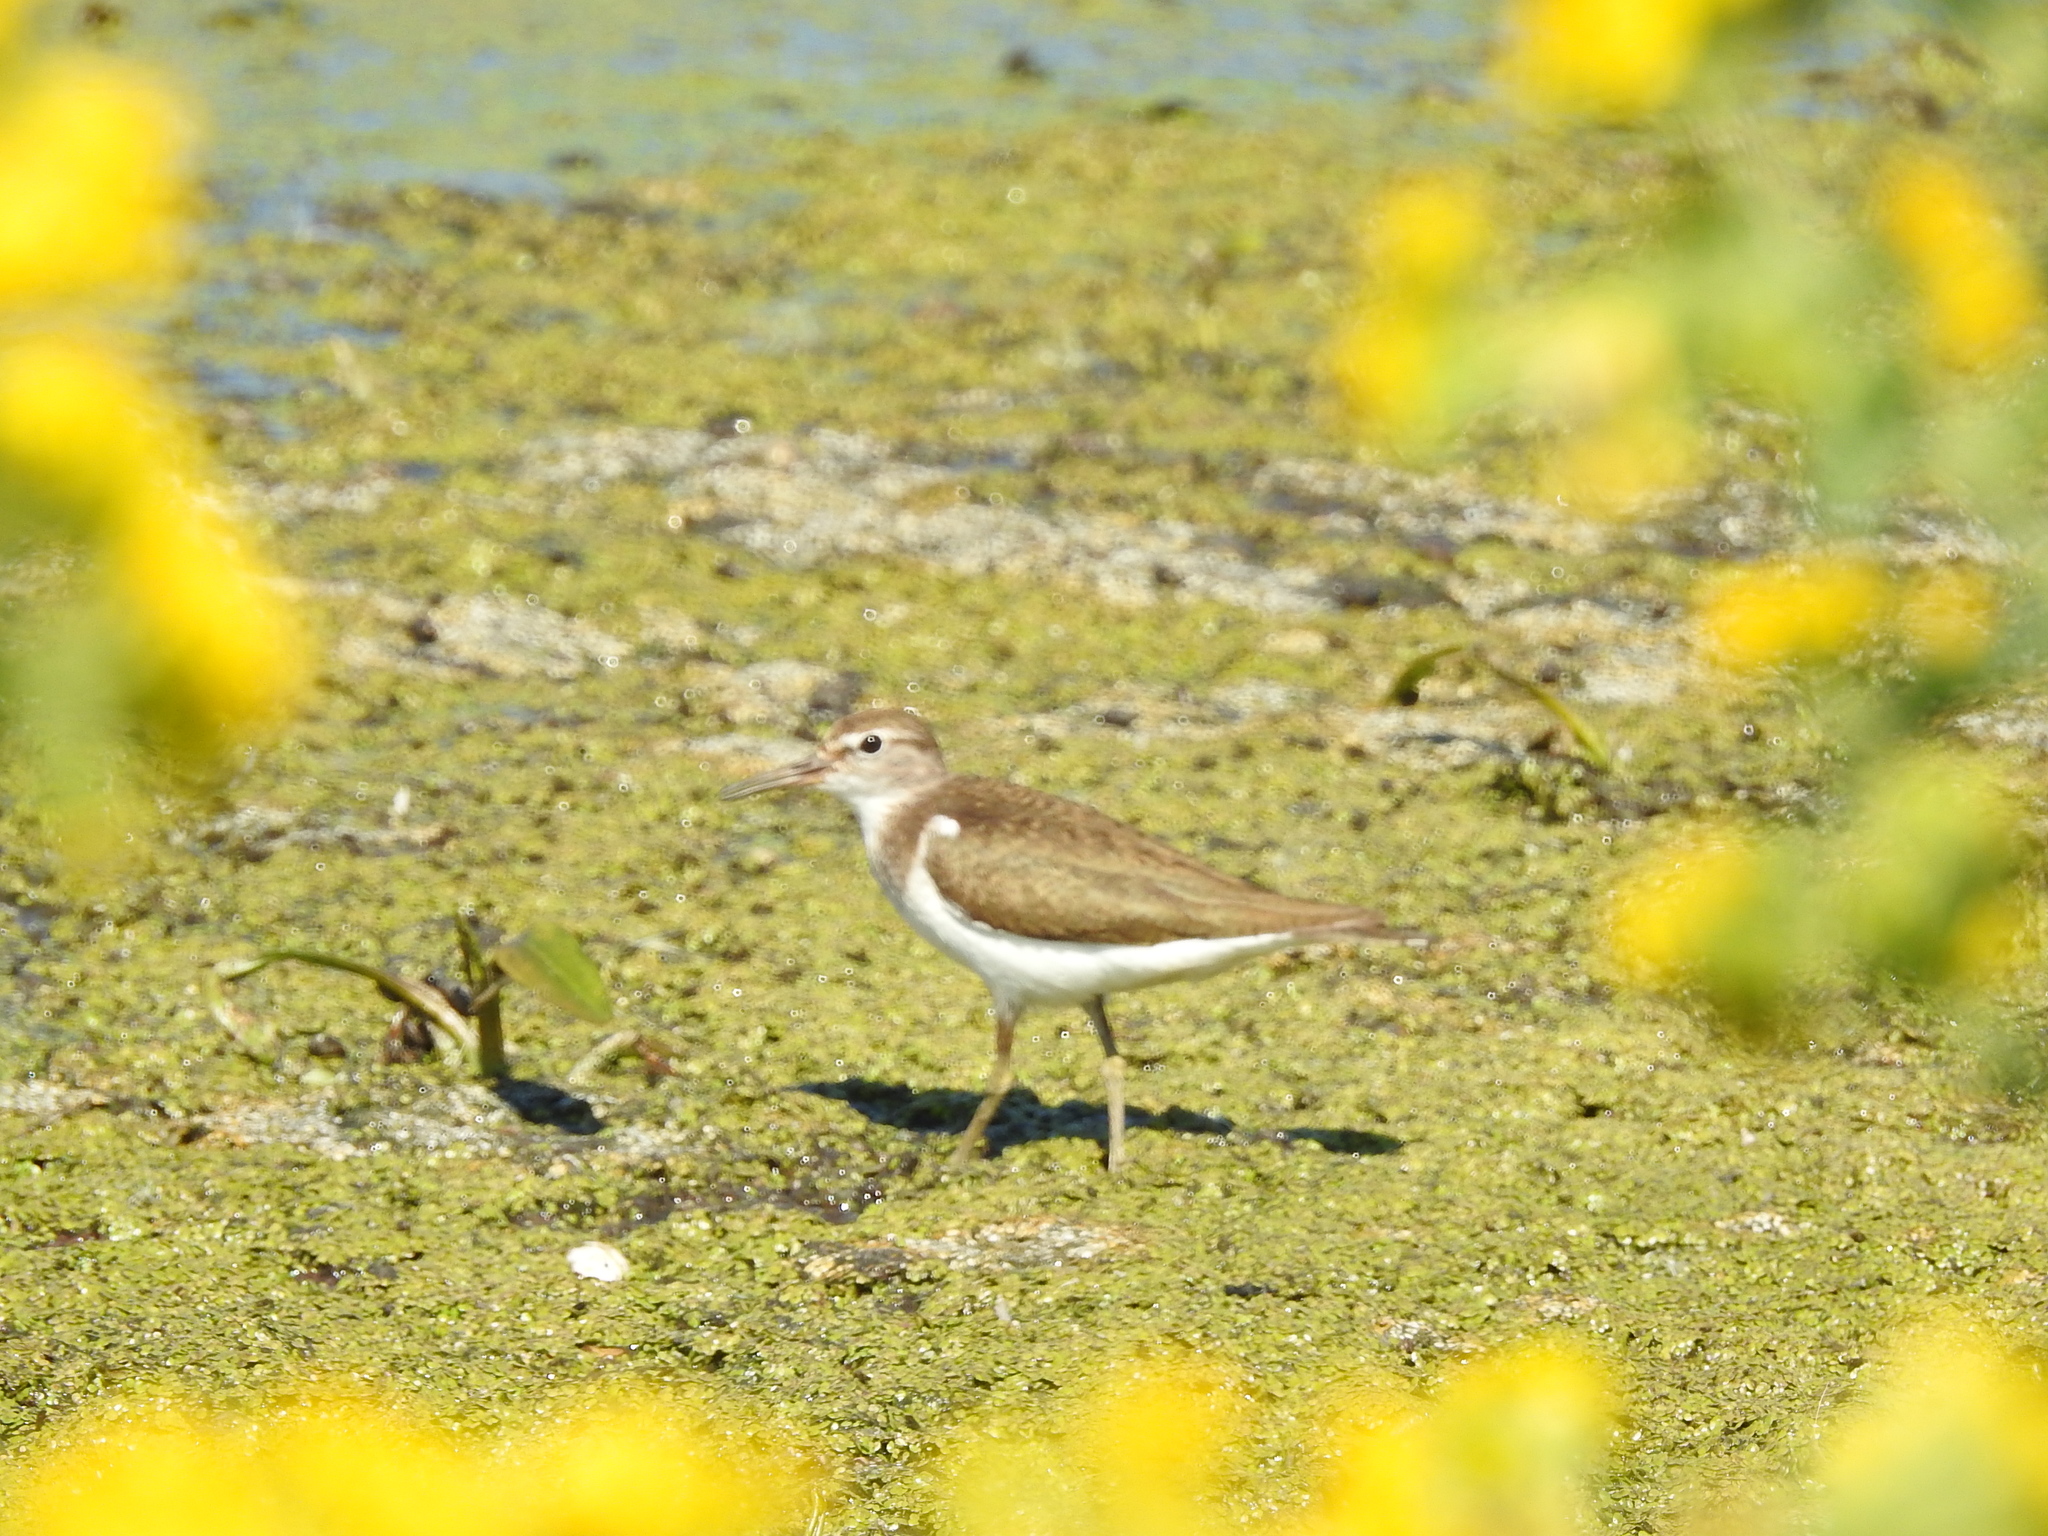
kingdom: Animalia
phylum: Chordata
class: Aves
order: Charadriiformes
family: Scolopacidae
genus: Actitis
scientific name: Actitis hypoleucos
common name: Common sandpiper
